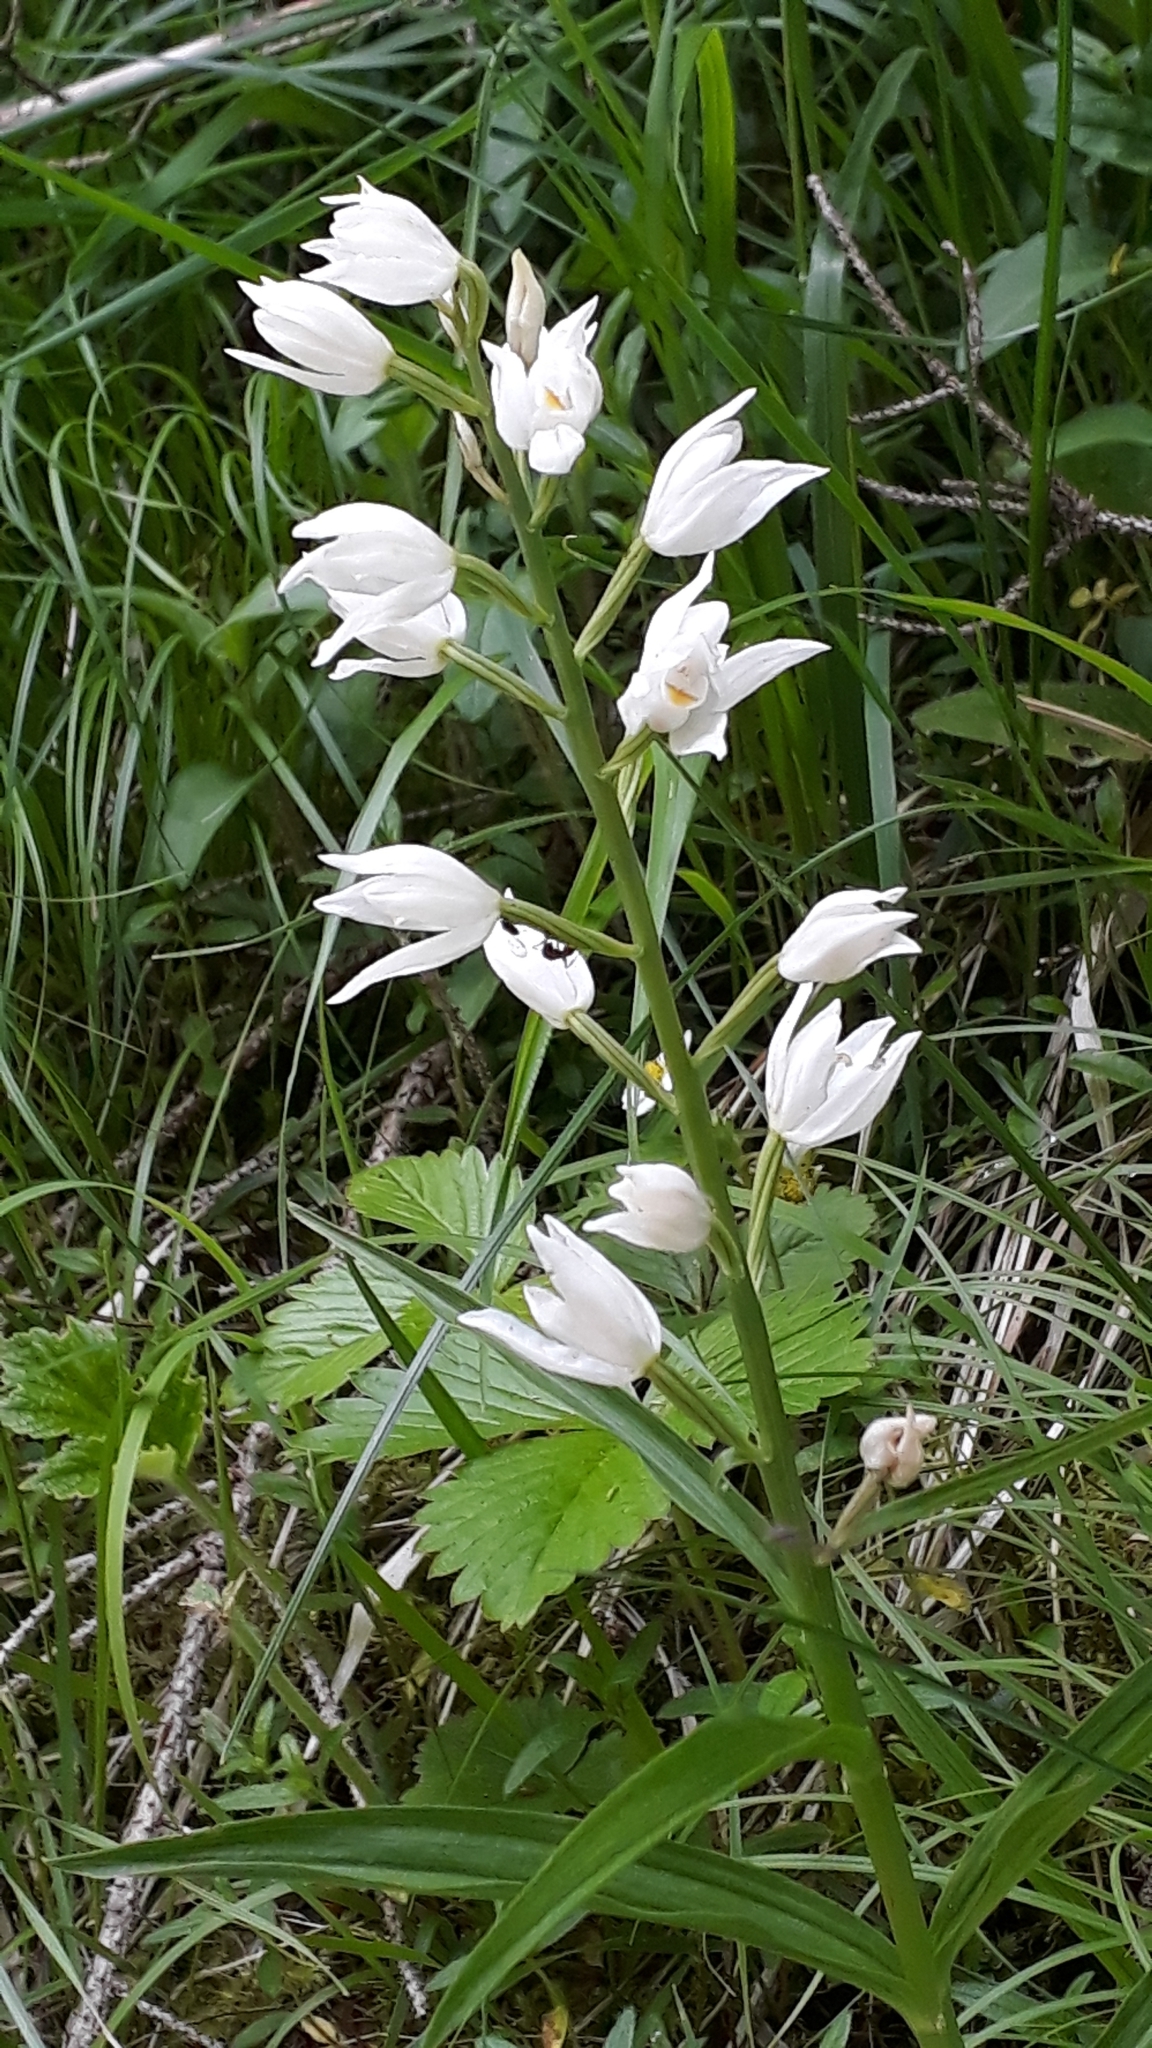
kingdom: Plantae
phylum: Tracheophyta
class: Liliopsida
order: Asparagales
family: Orchidaceae
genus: Cephalanthera
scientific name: Cephalanthera longifolia
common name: Narrow-leaved helleborine
